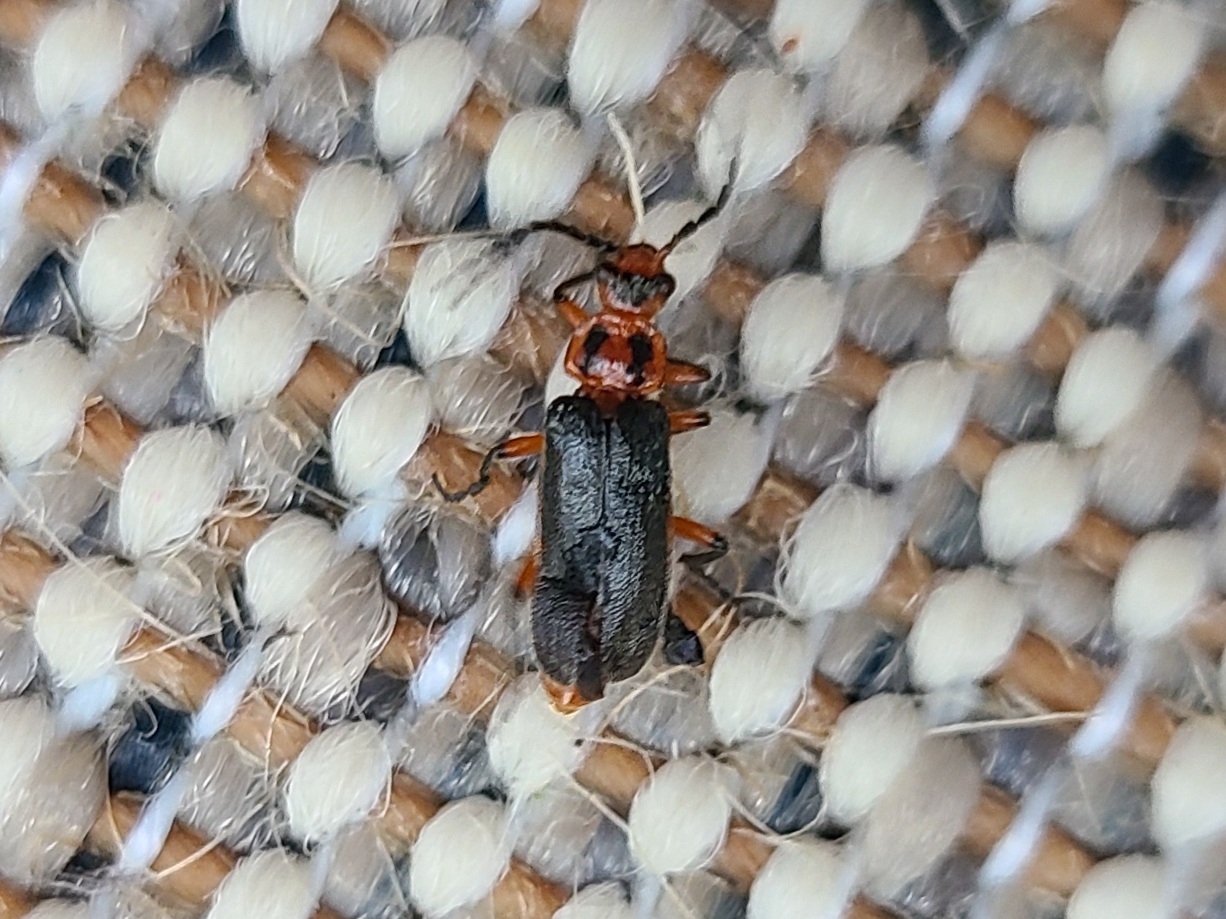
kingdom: Animalia
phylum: Arthropoda
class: Insecta
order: Coleoptera
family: Cantharidae
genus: Atalantycha
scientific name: Atalantycha bilineata
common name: Two-lined leatherwing
